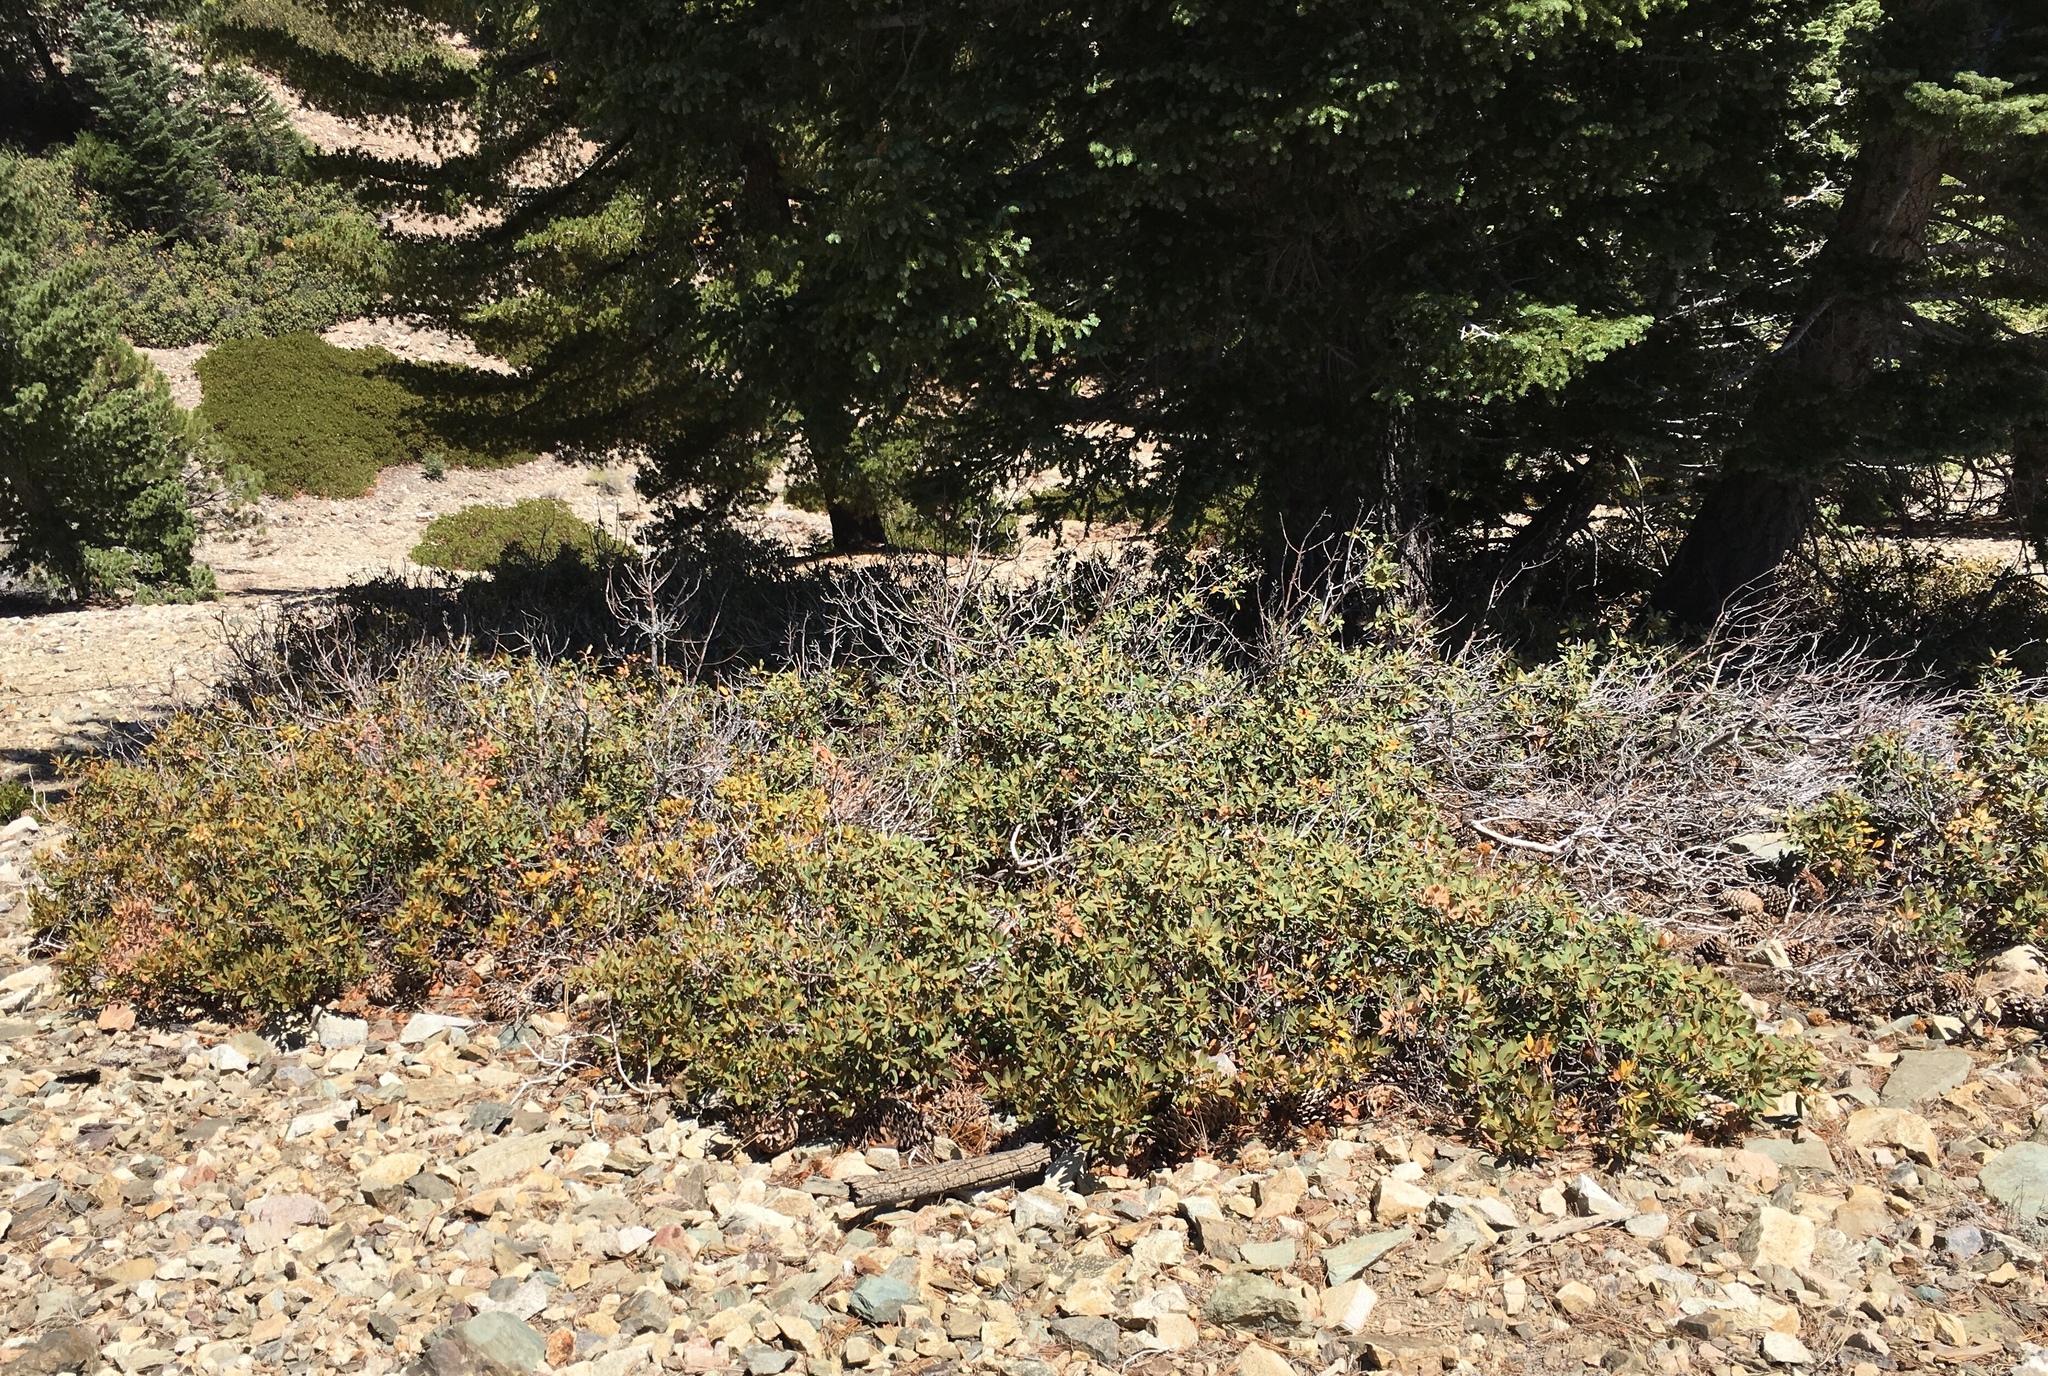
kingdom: Plantae
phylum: Tracheophyta
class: Magnoliopsida
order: Fagales
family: Fagaceae
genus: Chrysolepis
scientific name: Chrysolepis sempervirens
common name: Bush chinquapin
